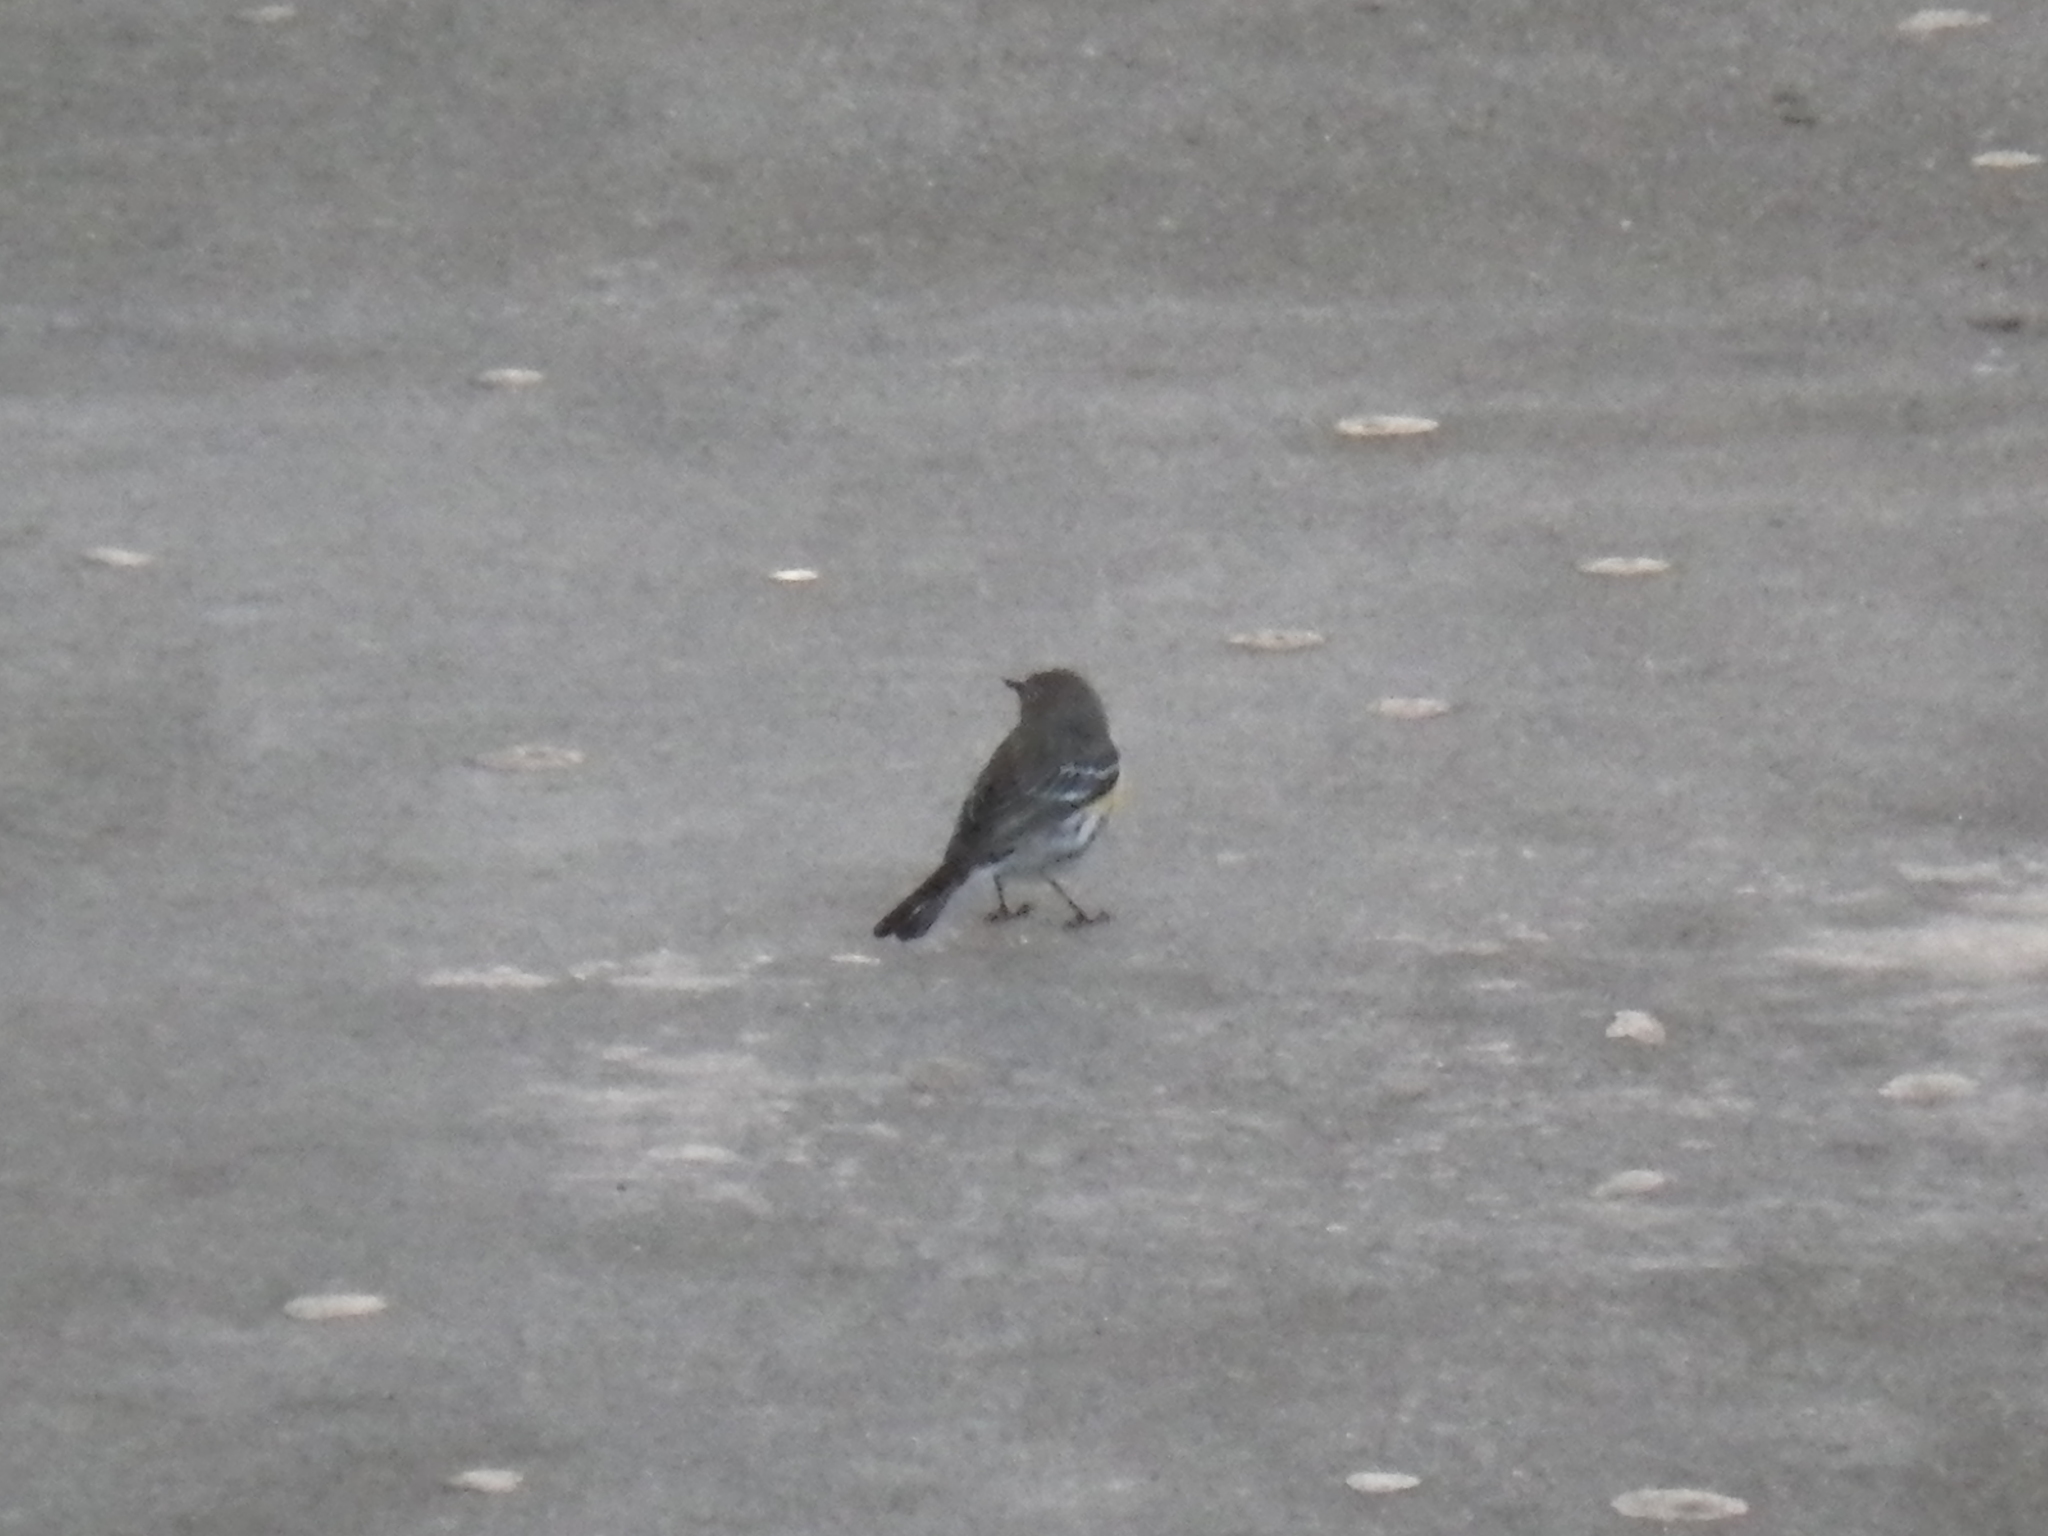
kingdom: Animalia
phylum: Chordata
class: Aves
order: Passeriformes
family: Parulidae
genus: Setophaga
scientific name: Setophaga coronata
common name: Myrtle warbler
